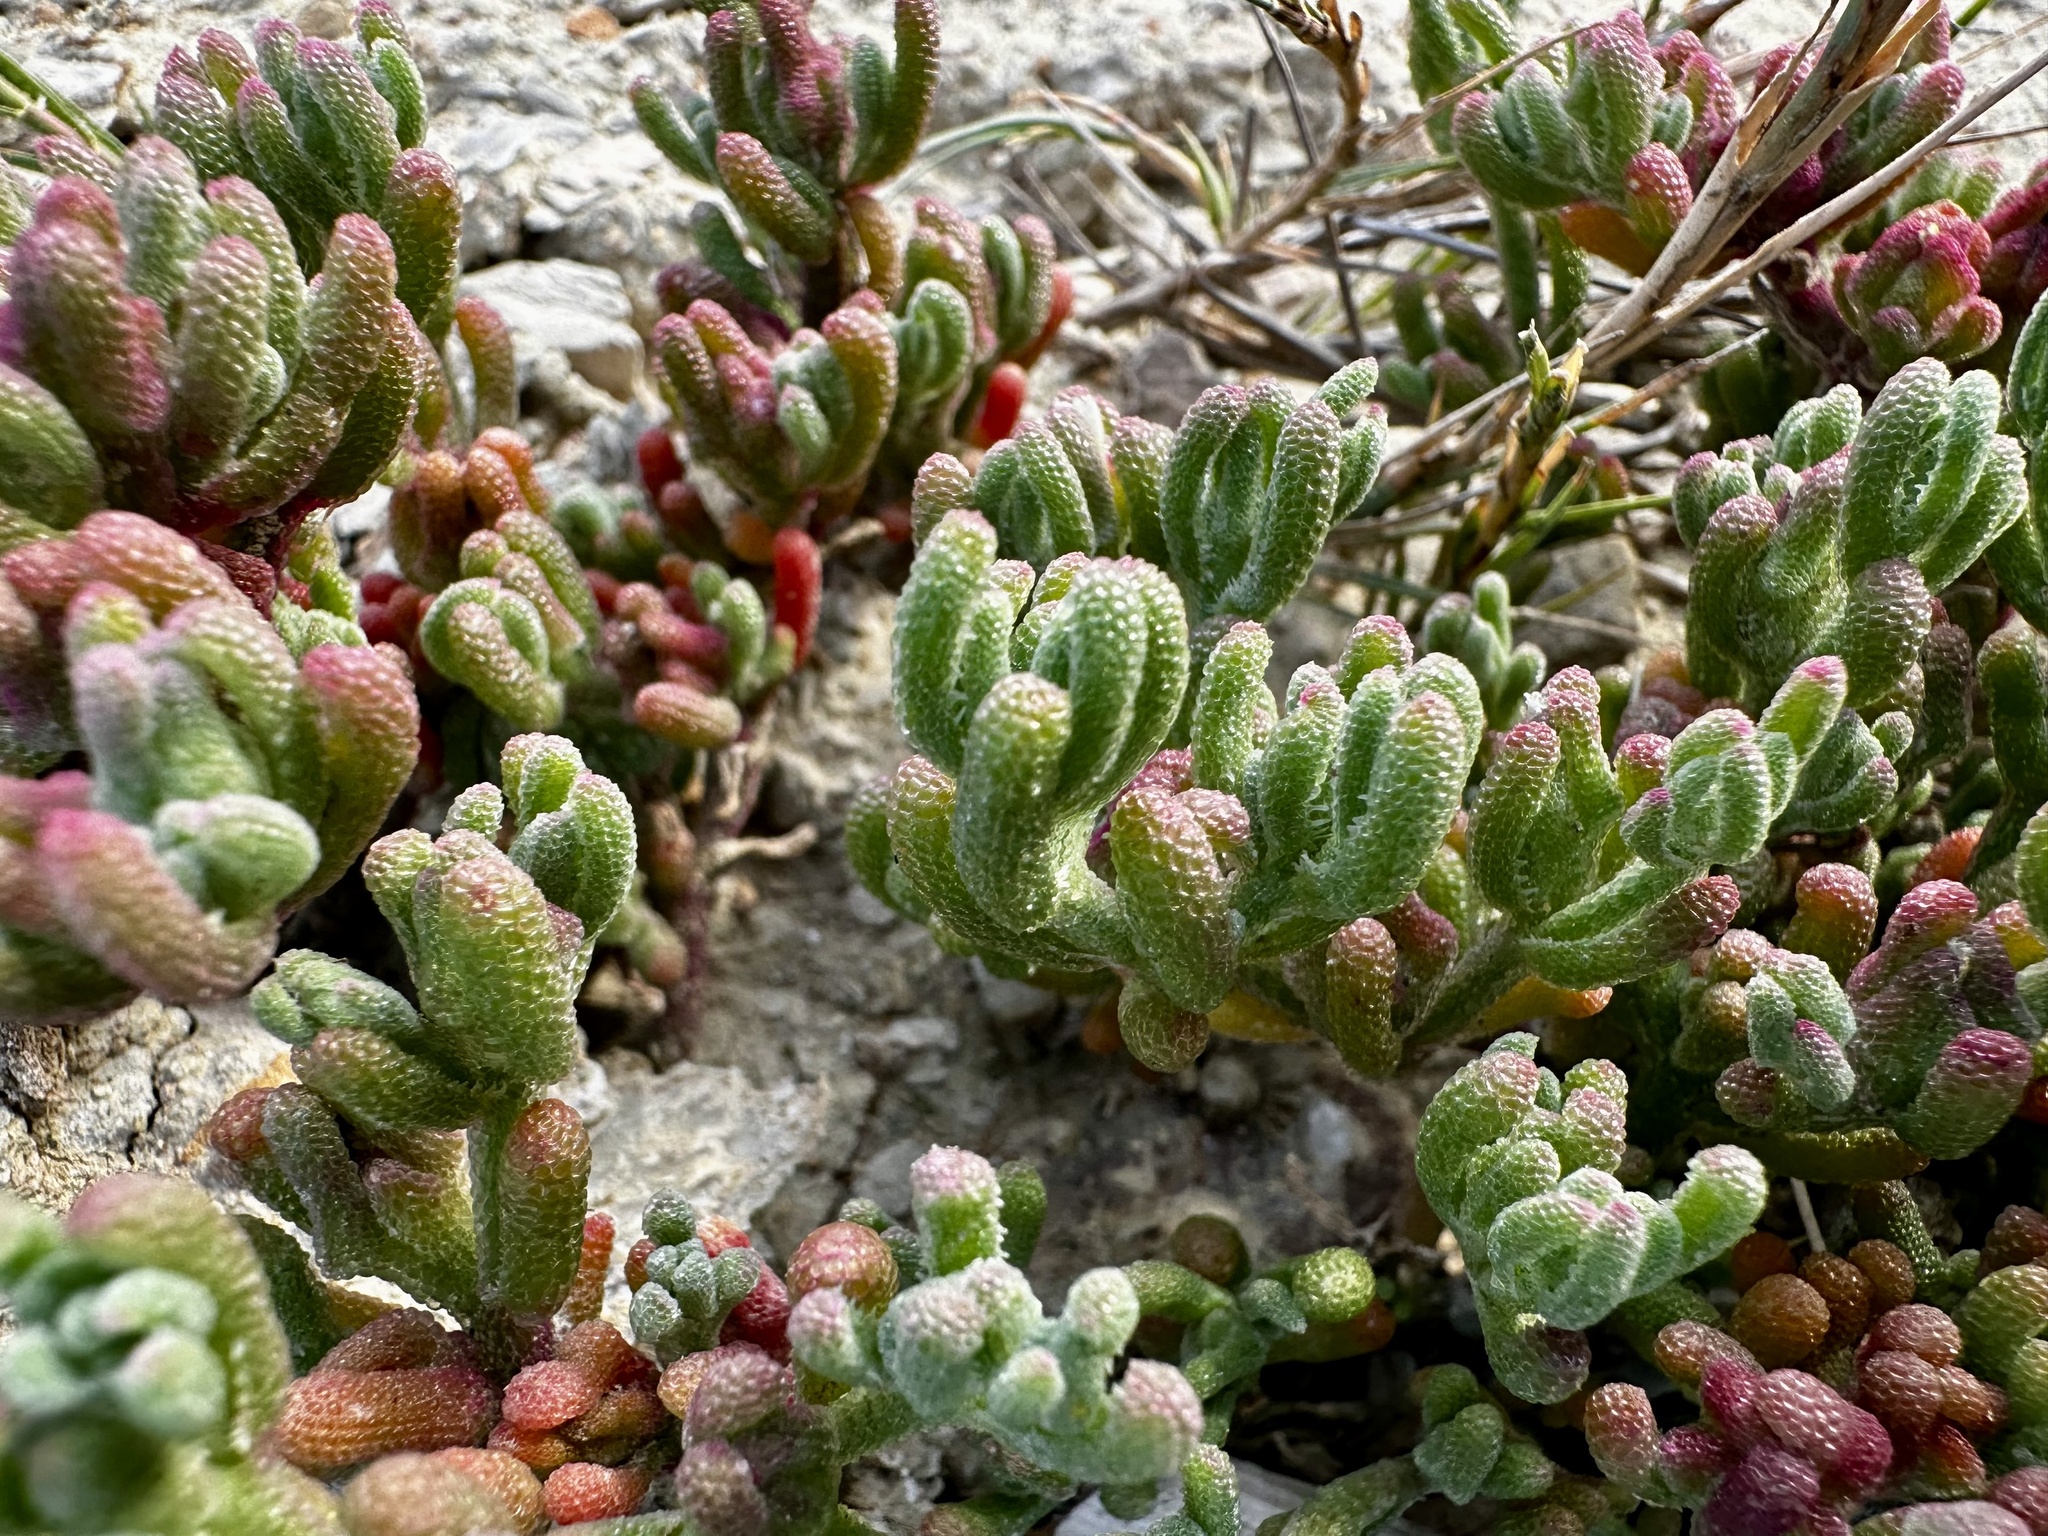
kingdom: Plantae
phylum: Tracheophyta
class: Magnoliopsida
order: Caryophyllales
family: Aizoaceae
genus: Mesembryanthemum
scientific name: Mesembryanthemum nodiflorum
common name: Slenderleaf iceplant
